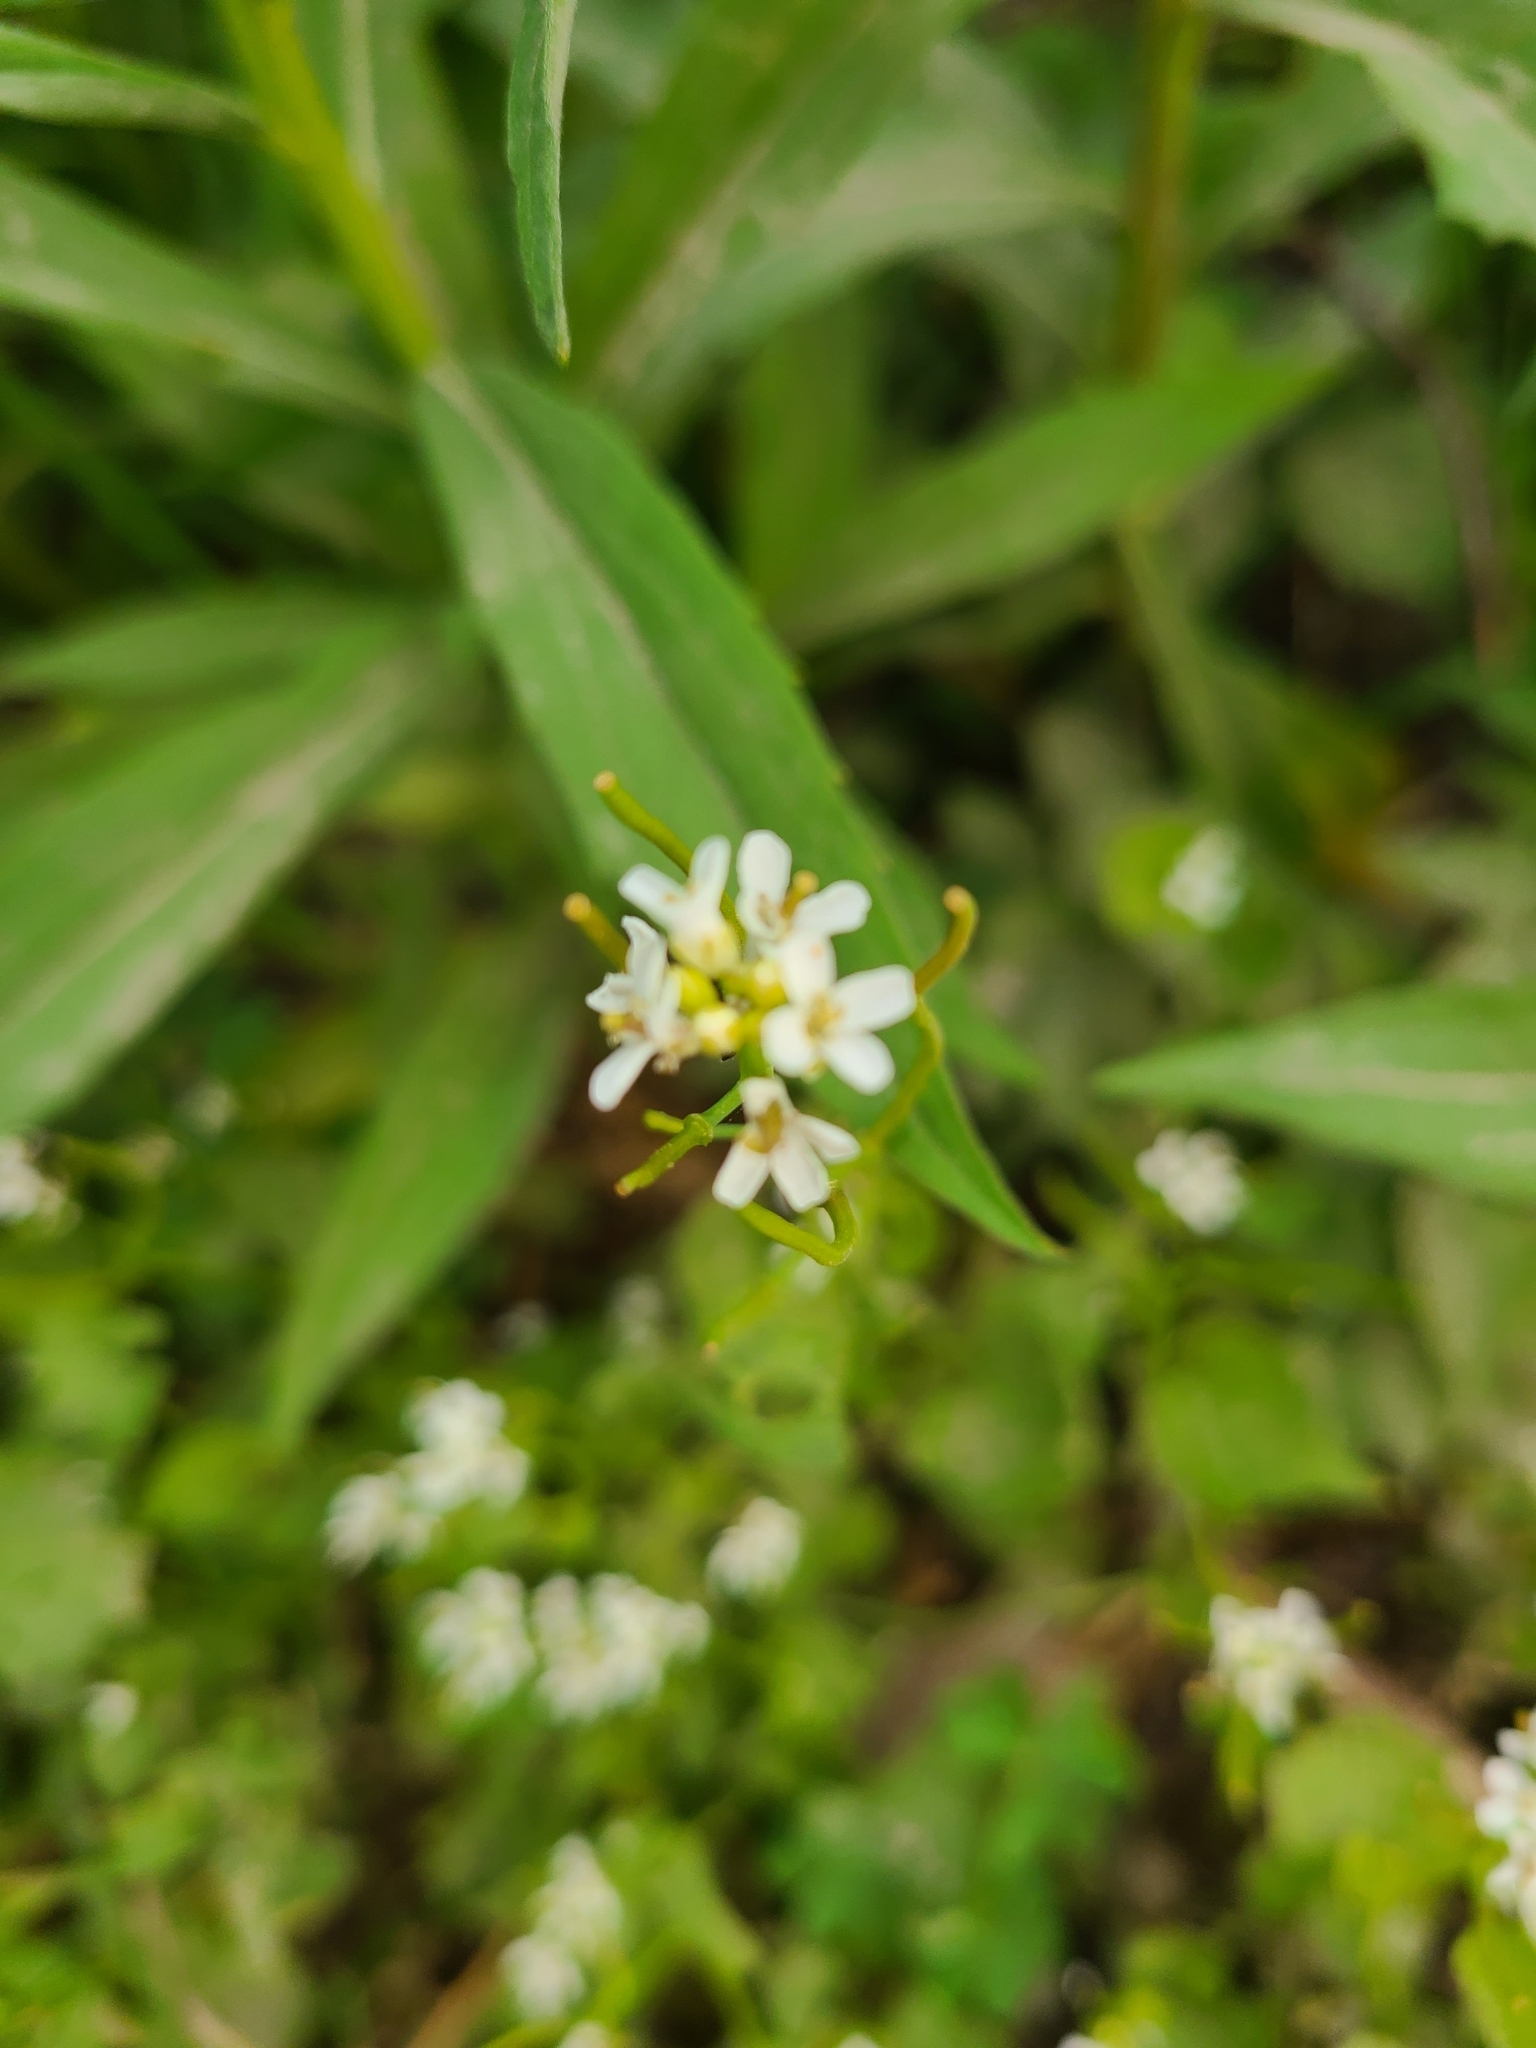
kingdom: Plantae
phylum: Tracheophyta
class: Magnoliopsida
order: Brassicales
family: Brassicaceae
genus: Alliaria
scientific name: Alliaria petiolata
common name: Garlic mustard
